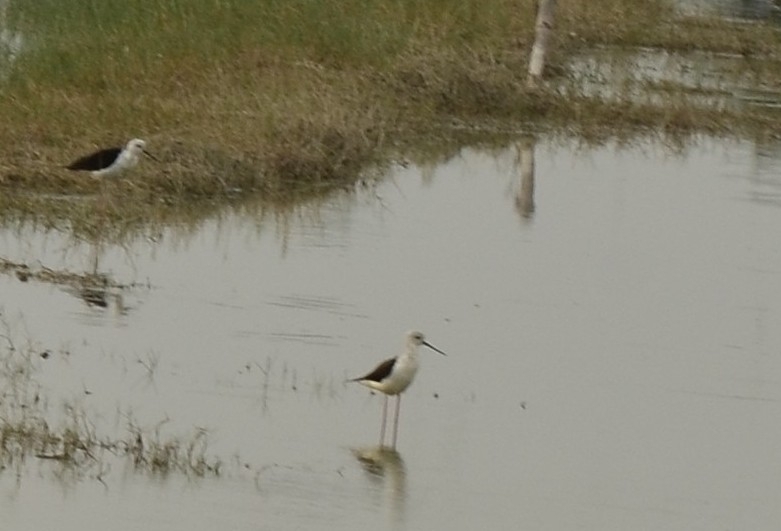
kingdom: Animalia
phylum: Chordata
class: Aves
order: Charadriiformes
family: Recurvirostridae
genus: Himantopus
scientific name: Himantopus himantopus
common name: Black-winged stilt
